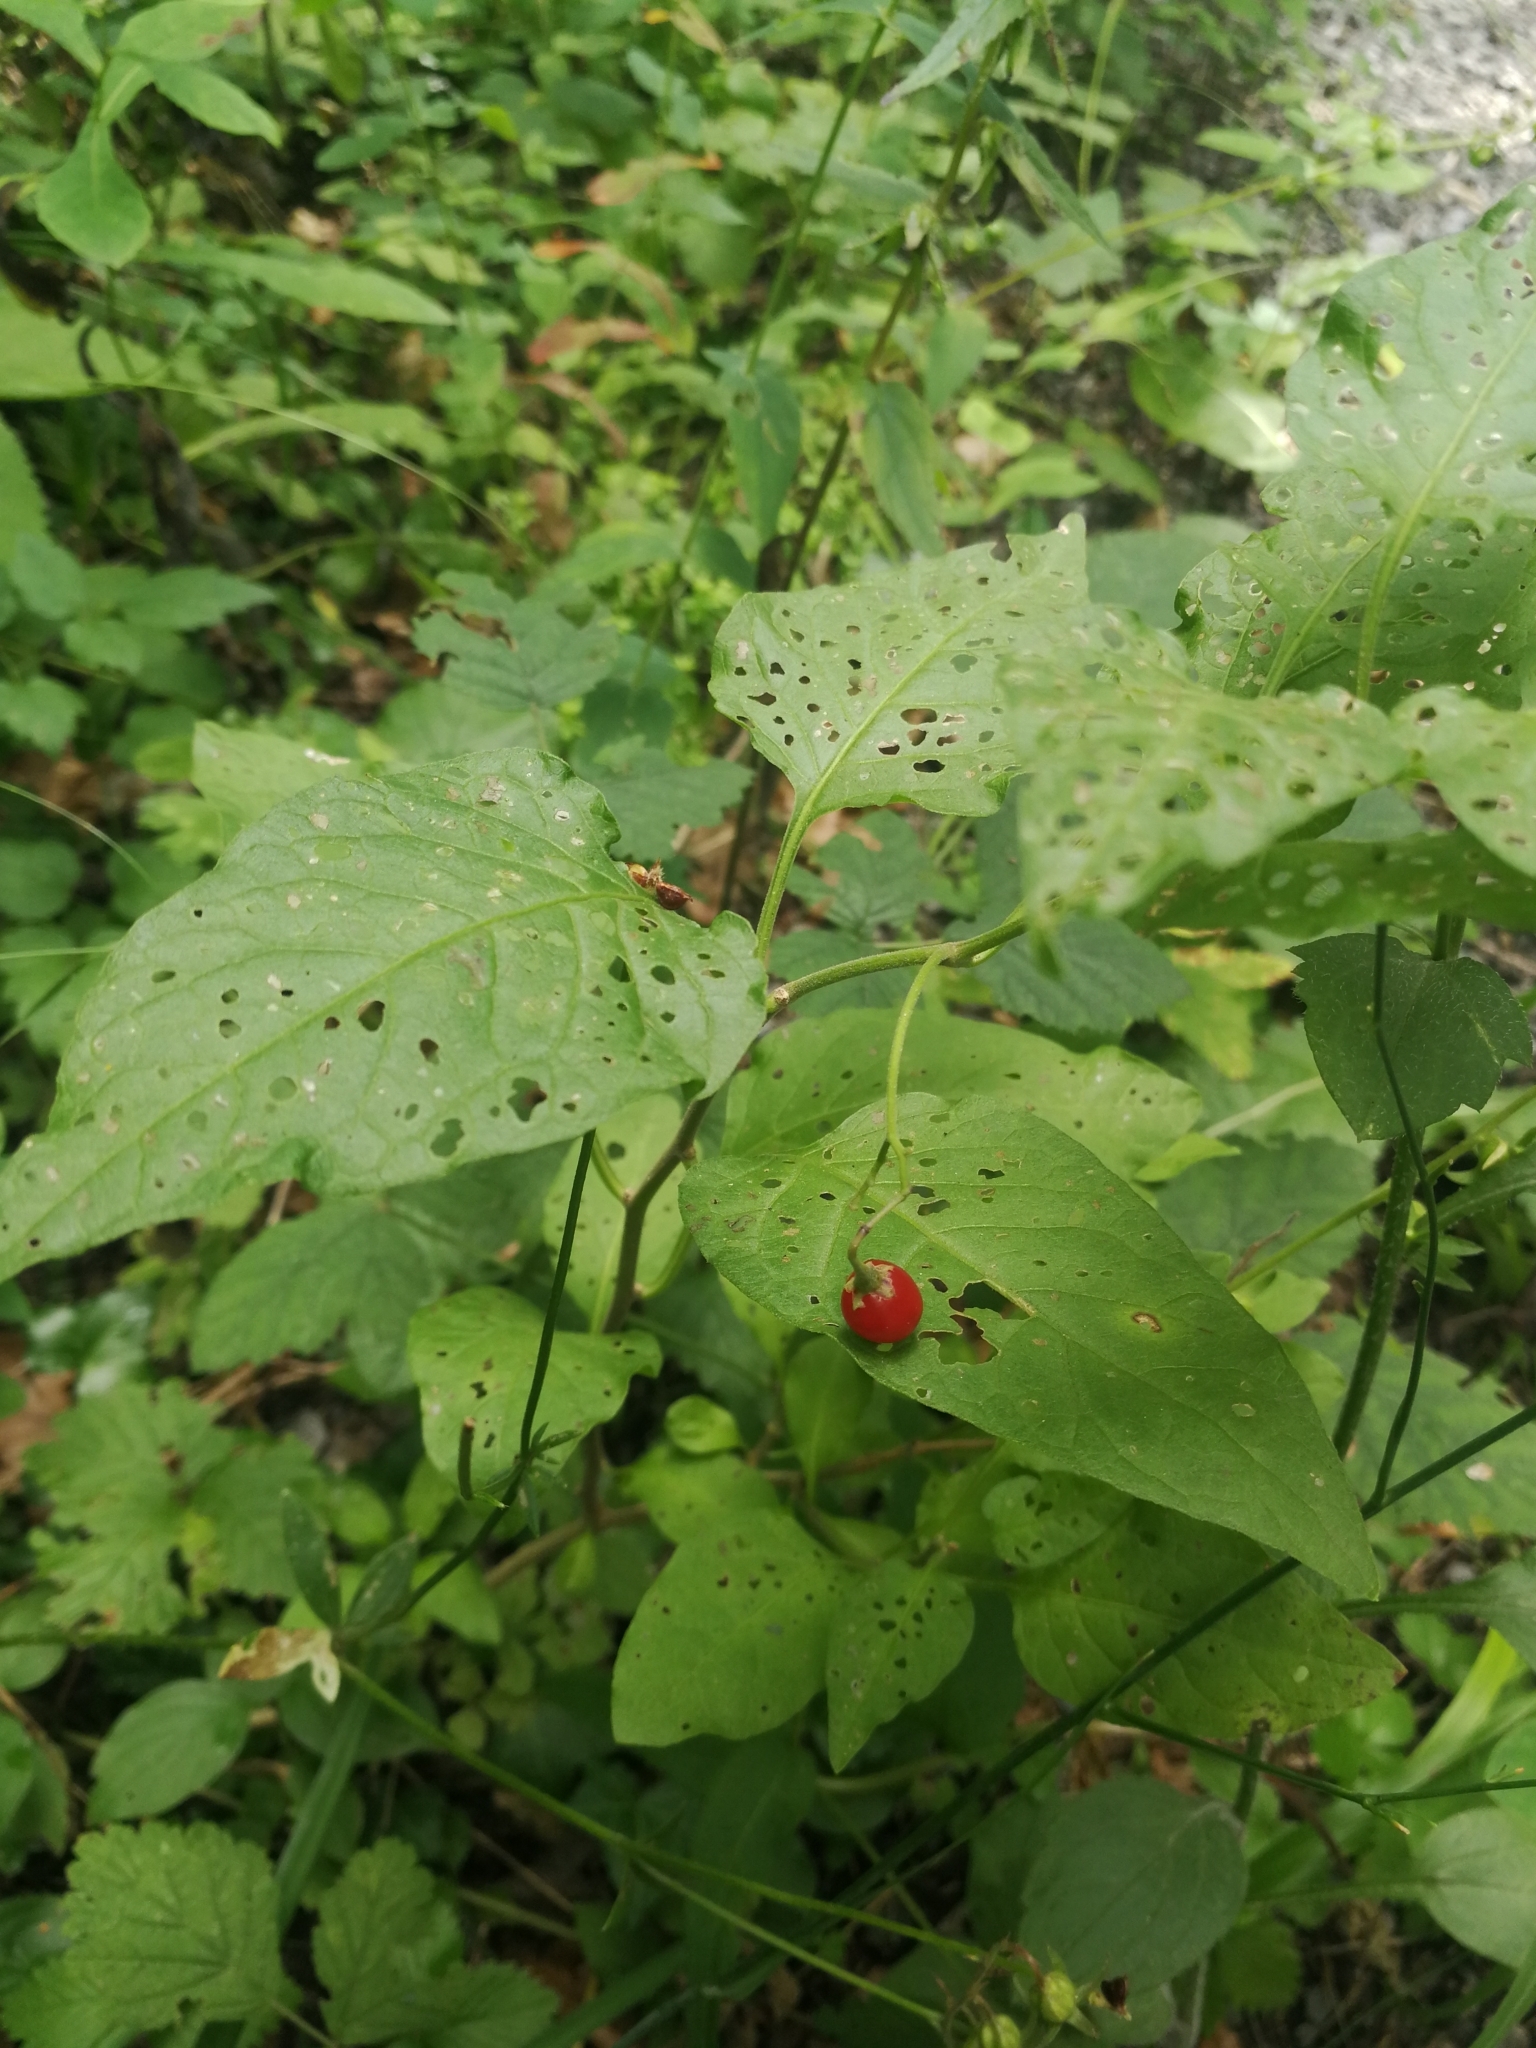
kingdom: Plantae
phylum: Tracheophyta
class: Magnoliopsida
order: Solanales
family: Solanaceae
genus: Solanum
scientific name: Solanum dulcamara
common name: Climbing nightshade
